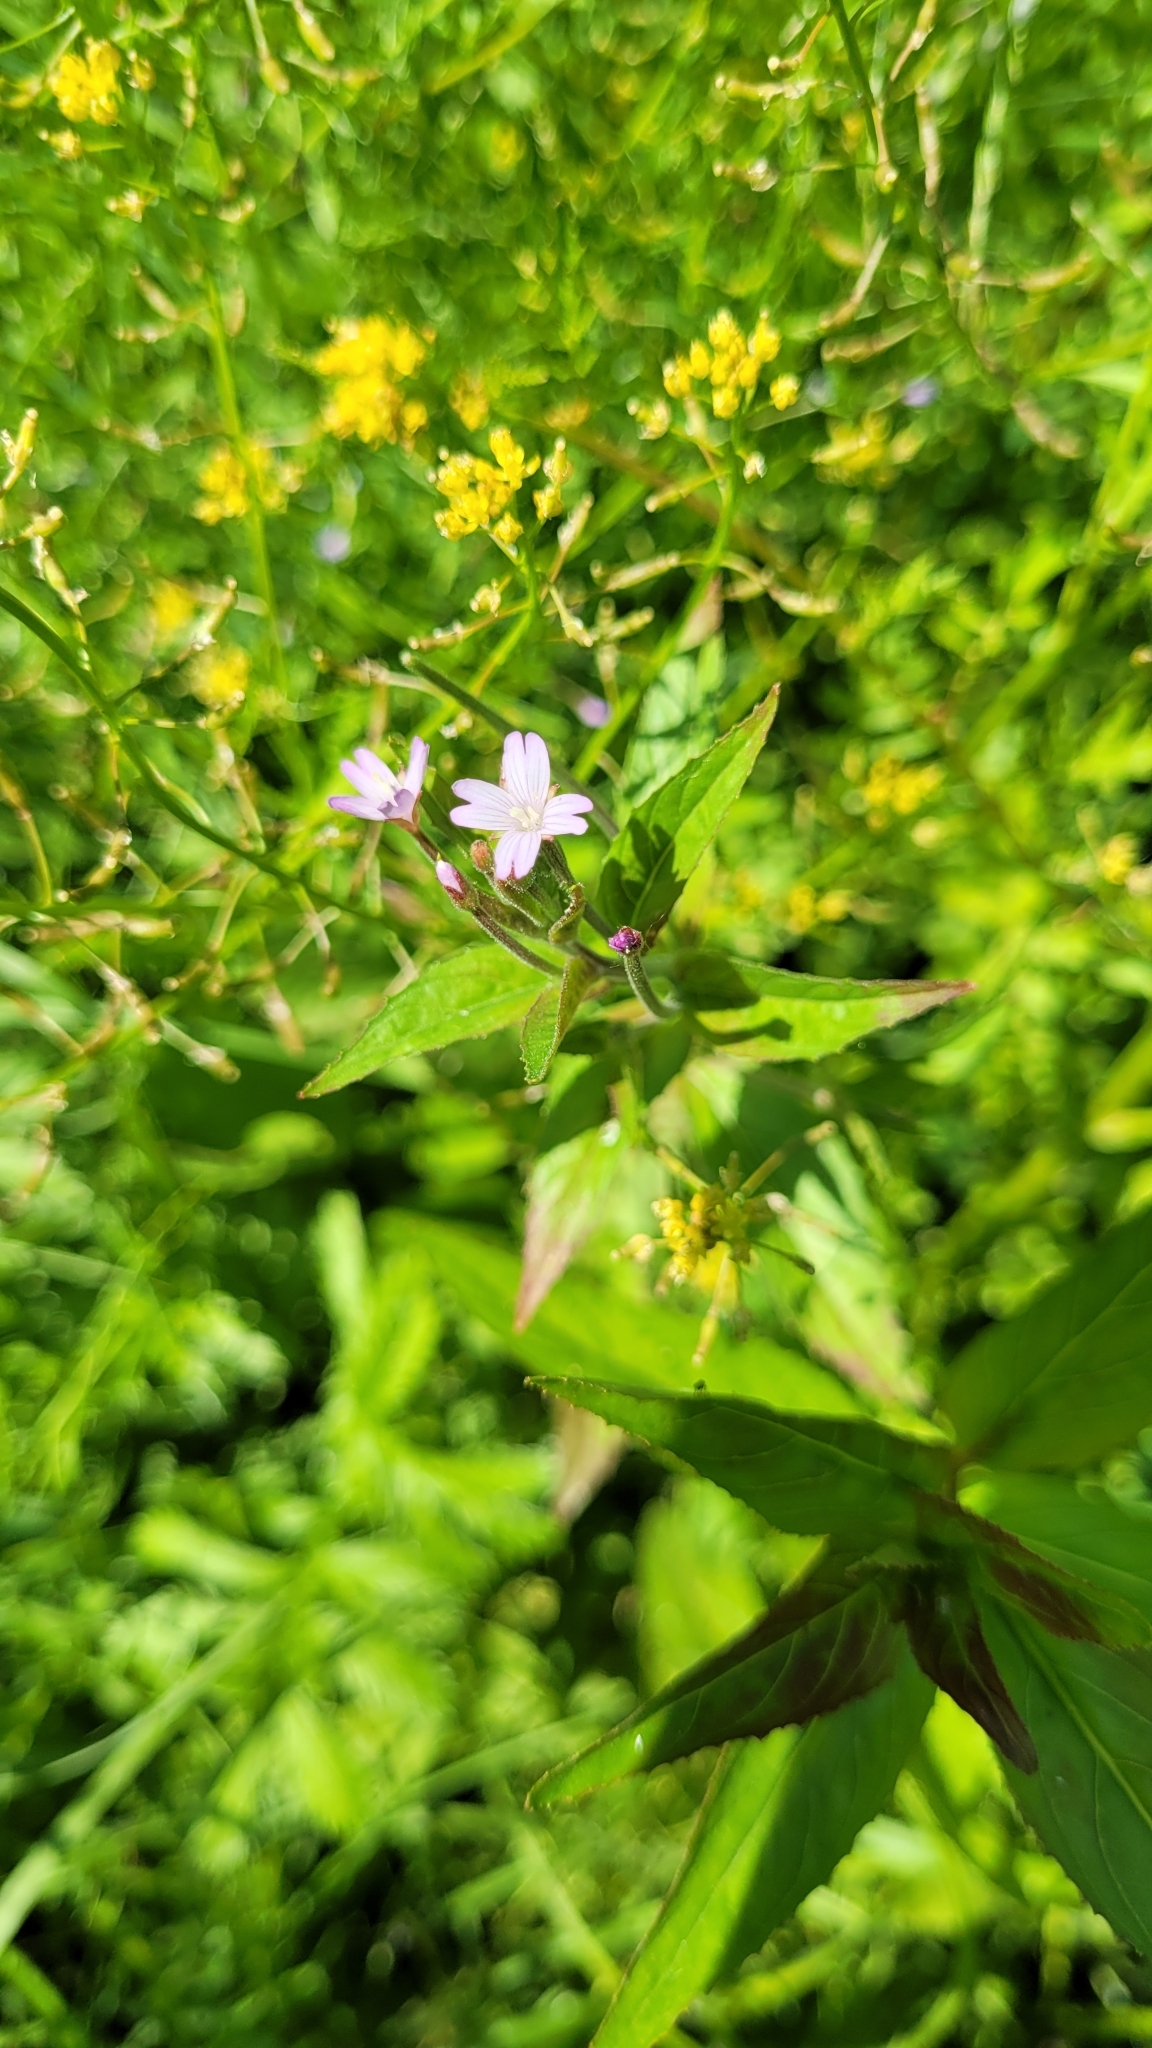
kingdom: Plantae
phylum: Tracheophyta
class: Magnoliopsida
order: Myrtales
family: Onagraceae
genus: Epilobium
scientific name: Epilobium ciliatum
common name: American willowherb
